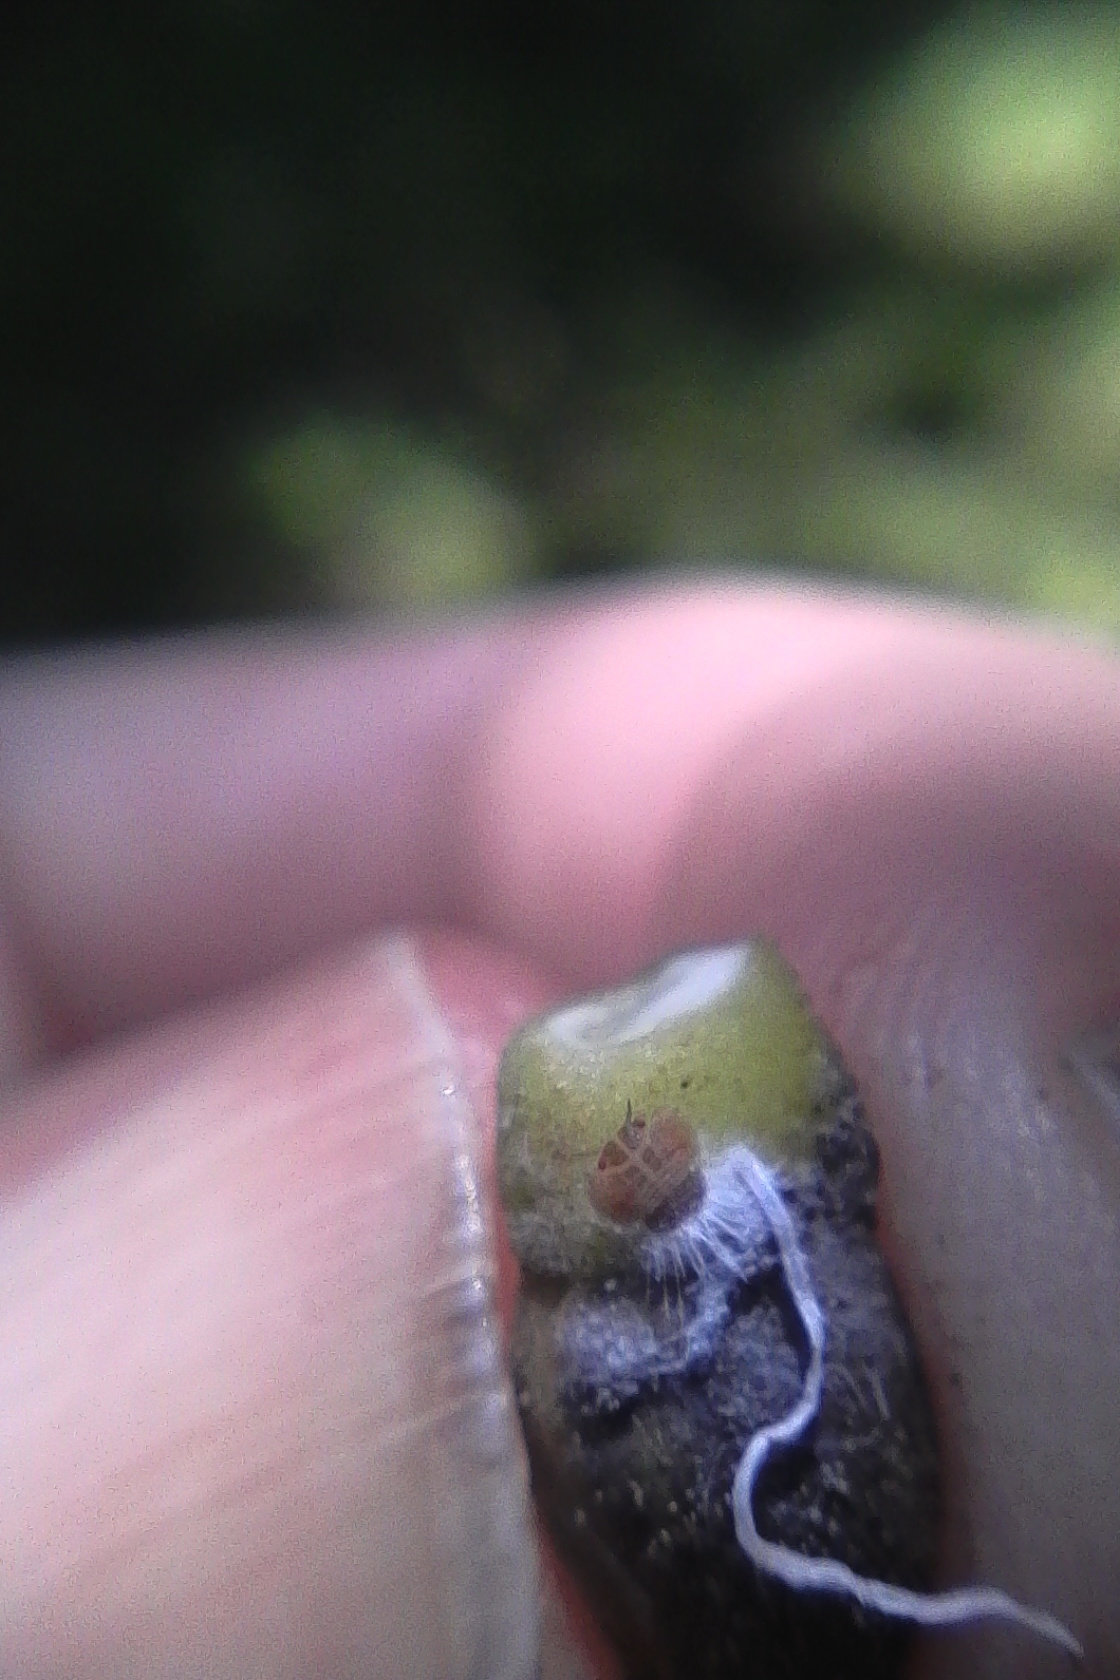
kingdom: Animalia
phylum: Arthropoda
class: Insecta
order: Hemiptera
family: Homotomidae
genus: Mycopsylla
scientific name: Mycopsylla obliqua
